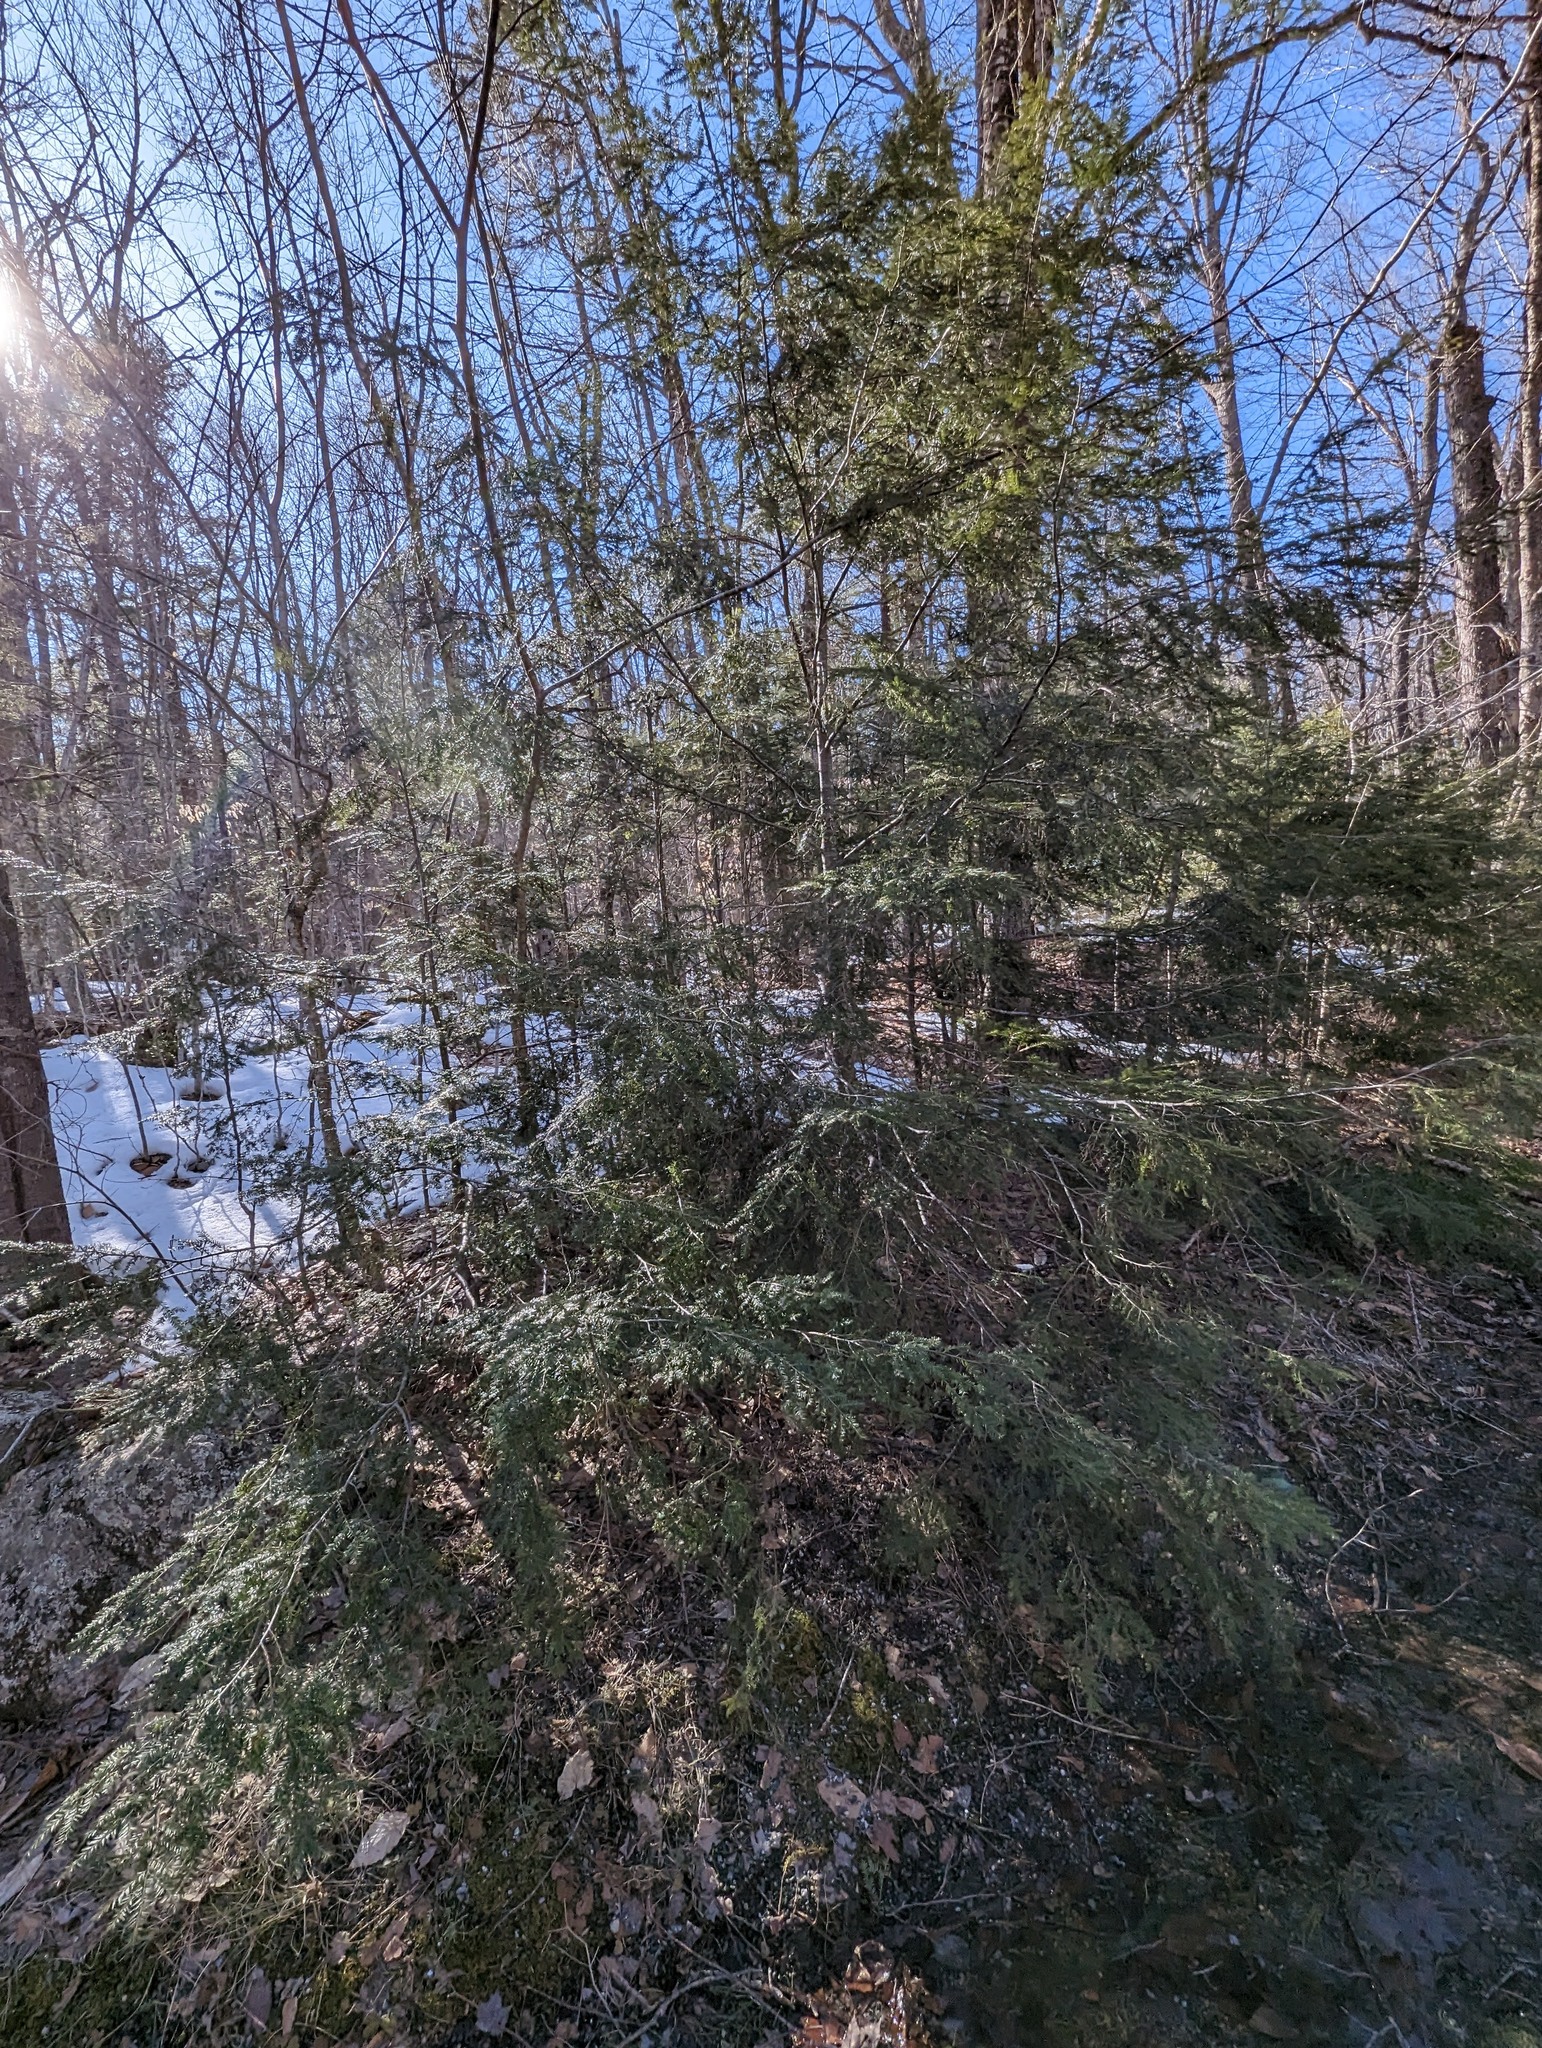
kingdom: Plantae
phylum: Tracheophyta
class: Pinopsida
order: Pinales
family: Pinaceae
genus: Tsuga
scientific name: Tsuga canadensis
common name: Eastern hemlock
